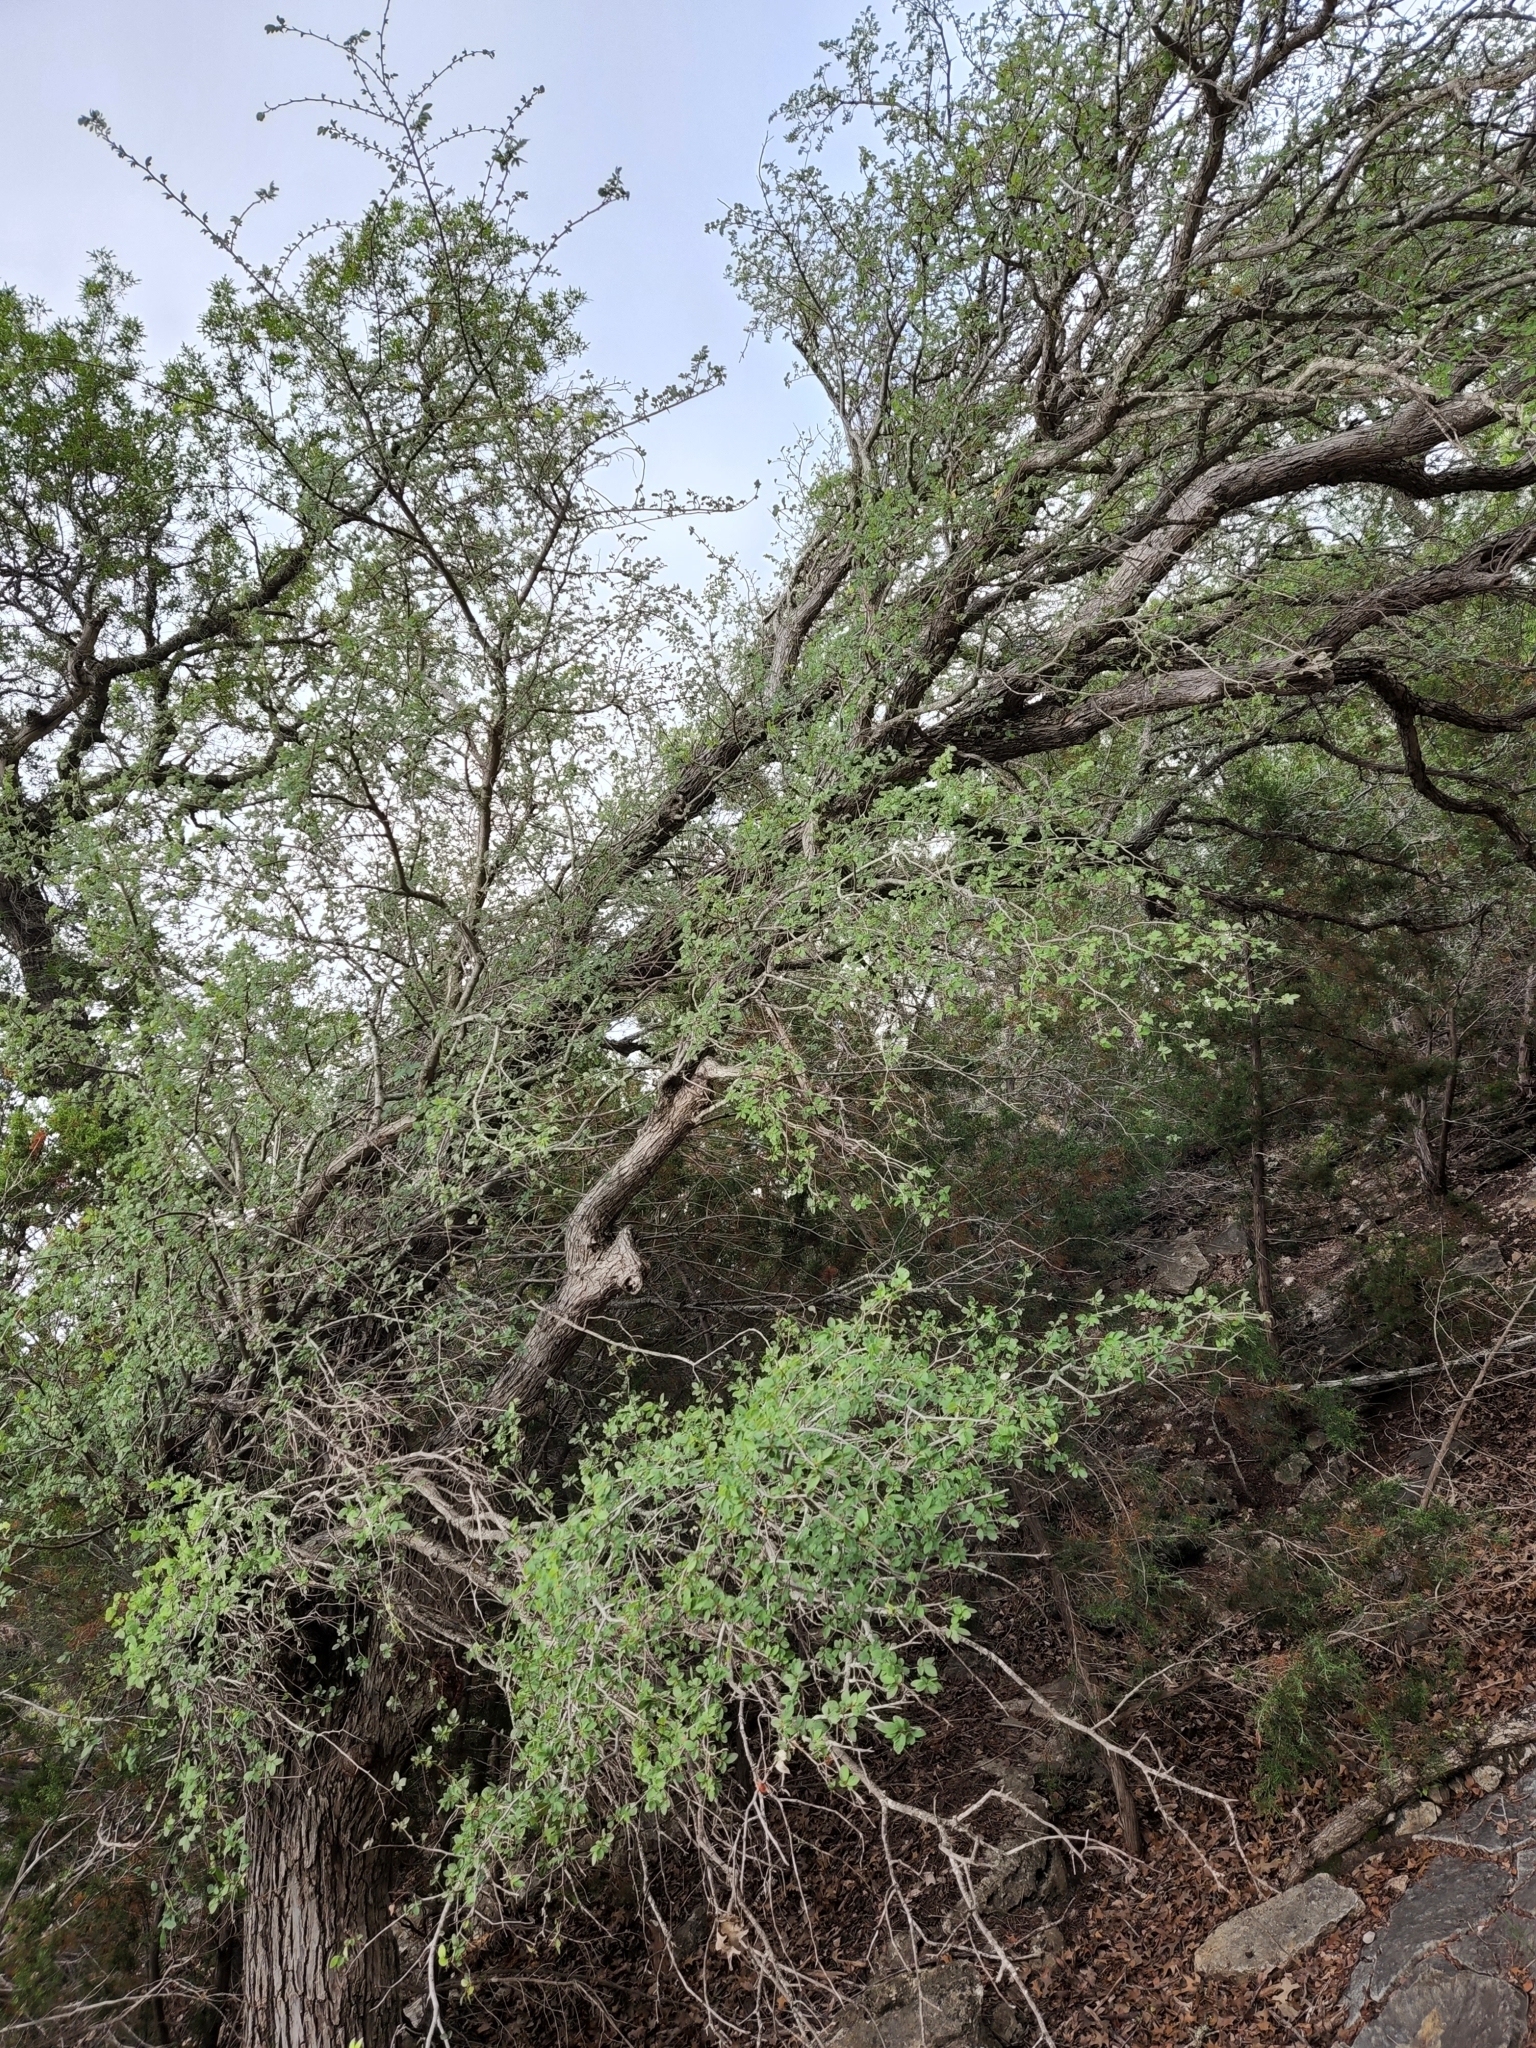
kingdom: Plantae
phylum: Tracheophyta
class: Magnoliopsida
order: Rosales
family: Ulmaceae
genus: Ulmus
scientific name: Ulmus crassifolia
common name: Basket elm
